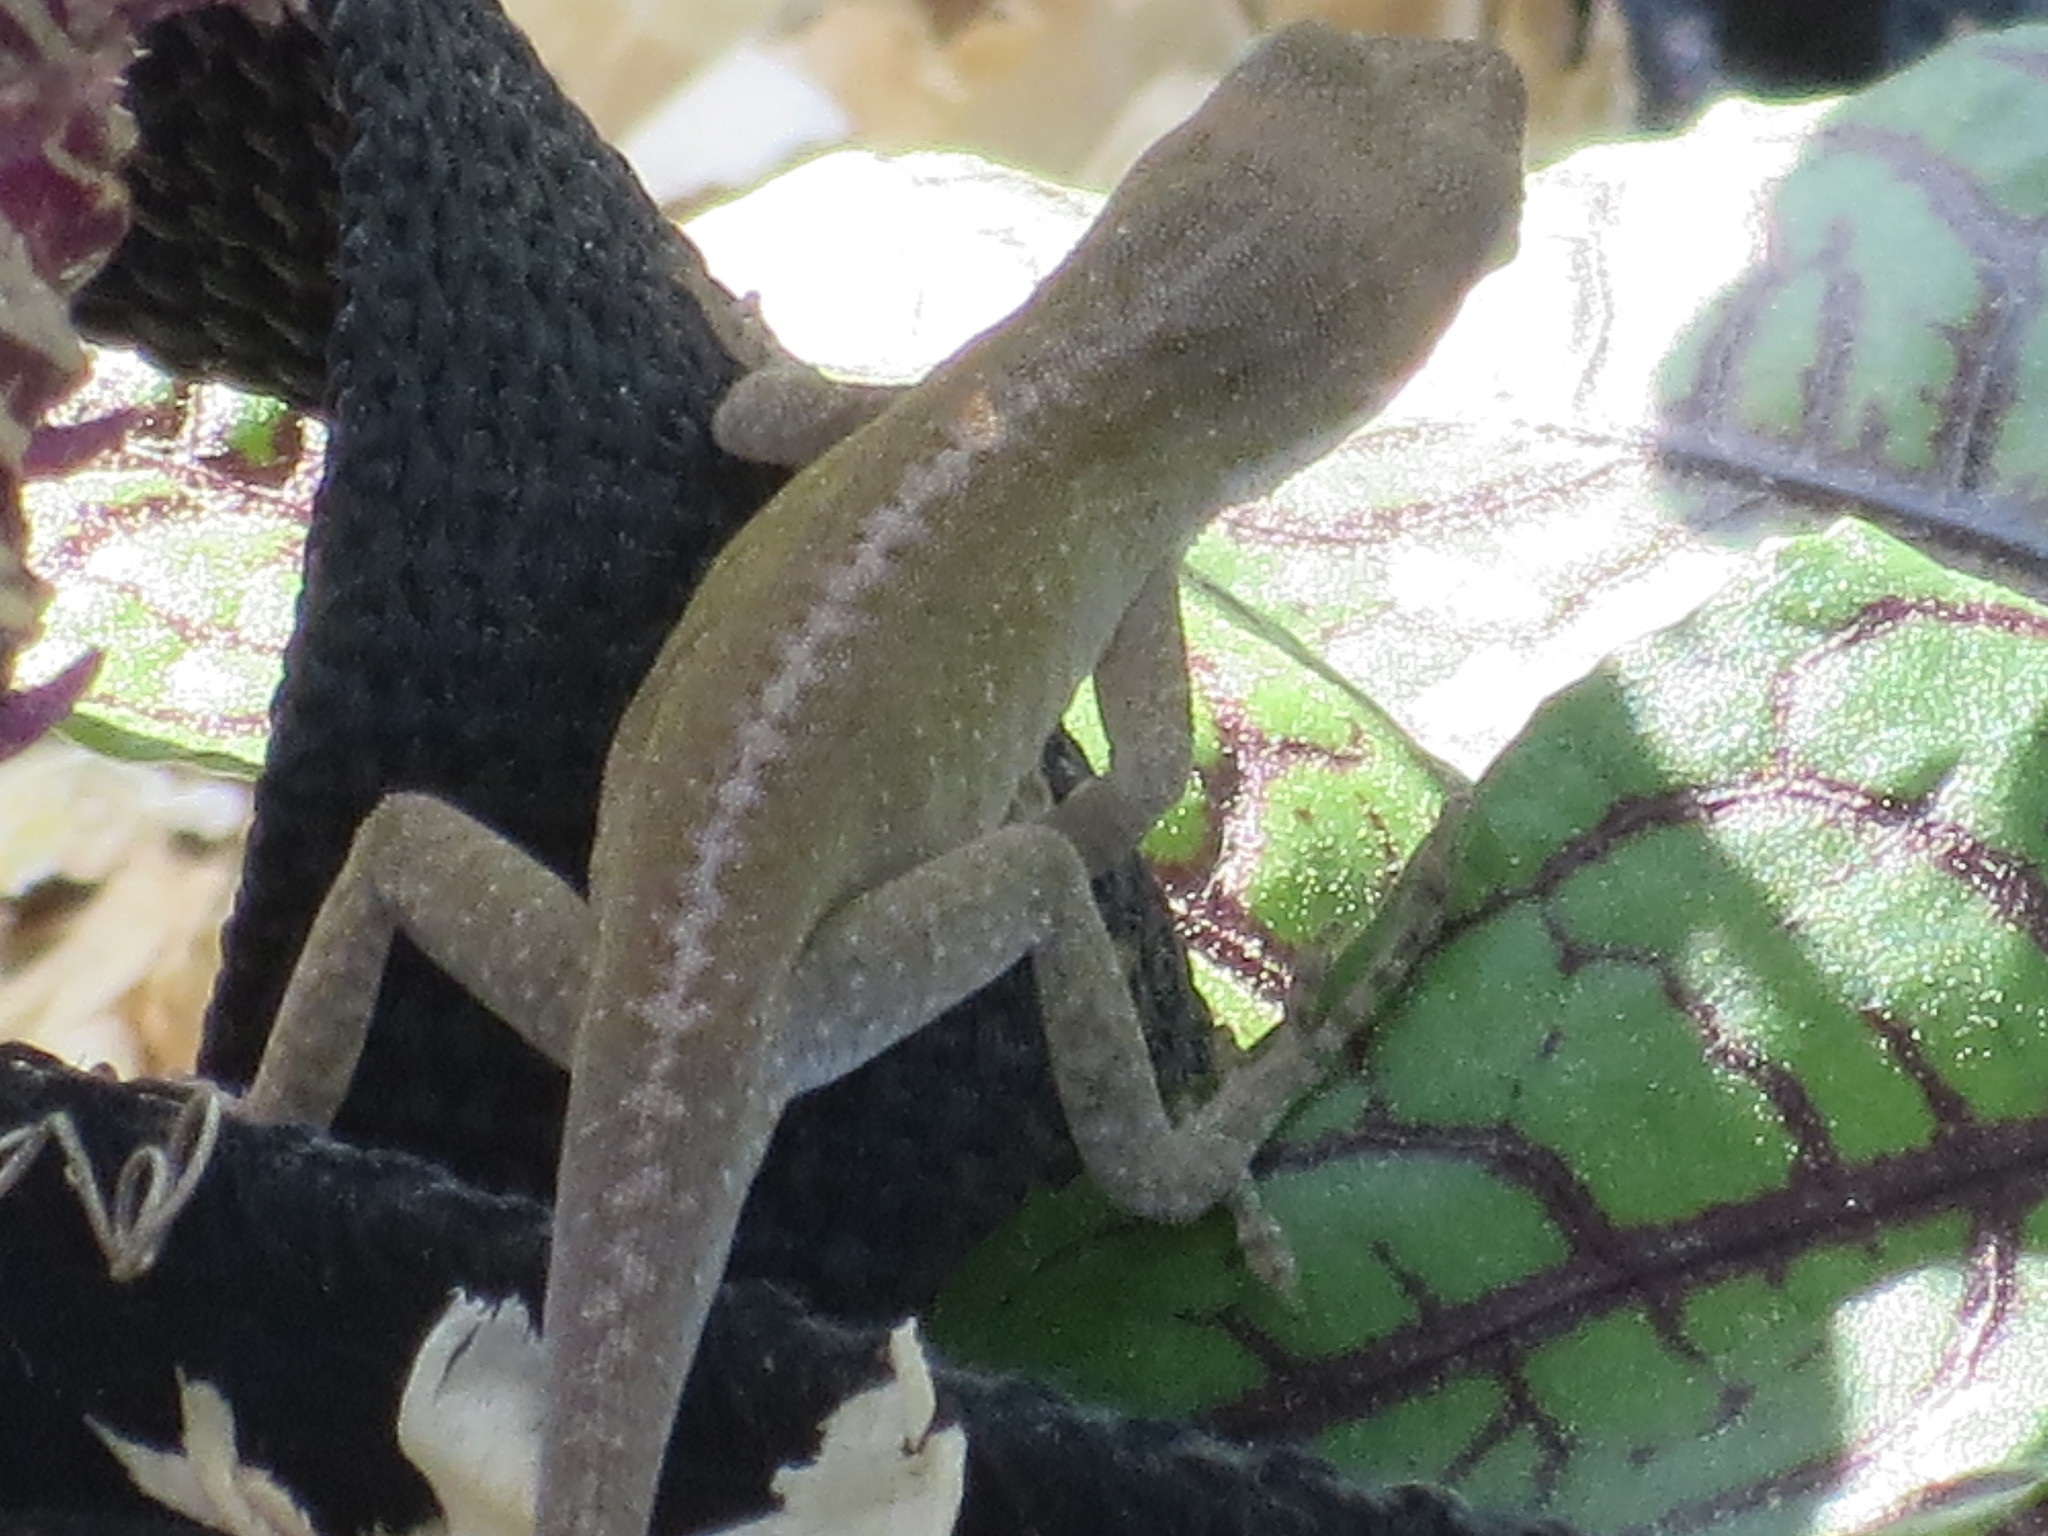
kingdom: Animalia
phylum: Chordata
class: Squamata
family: Dactyloidae
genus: Anolis
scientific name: Anolis carolinensis
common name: Green anole
